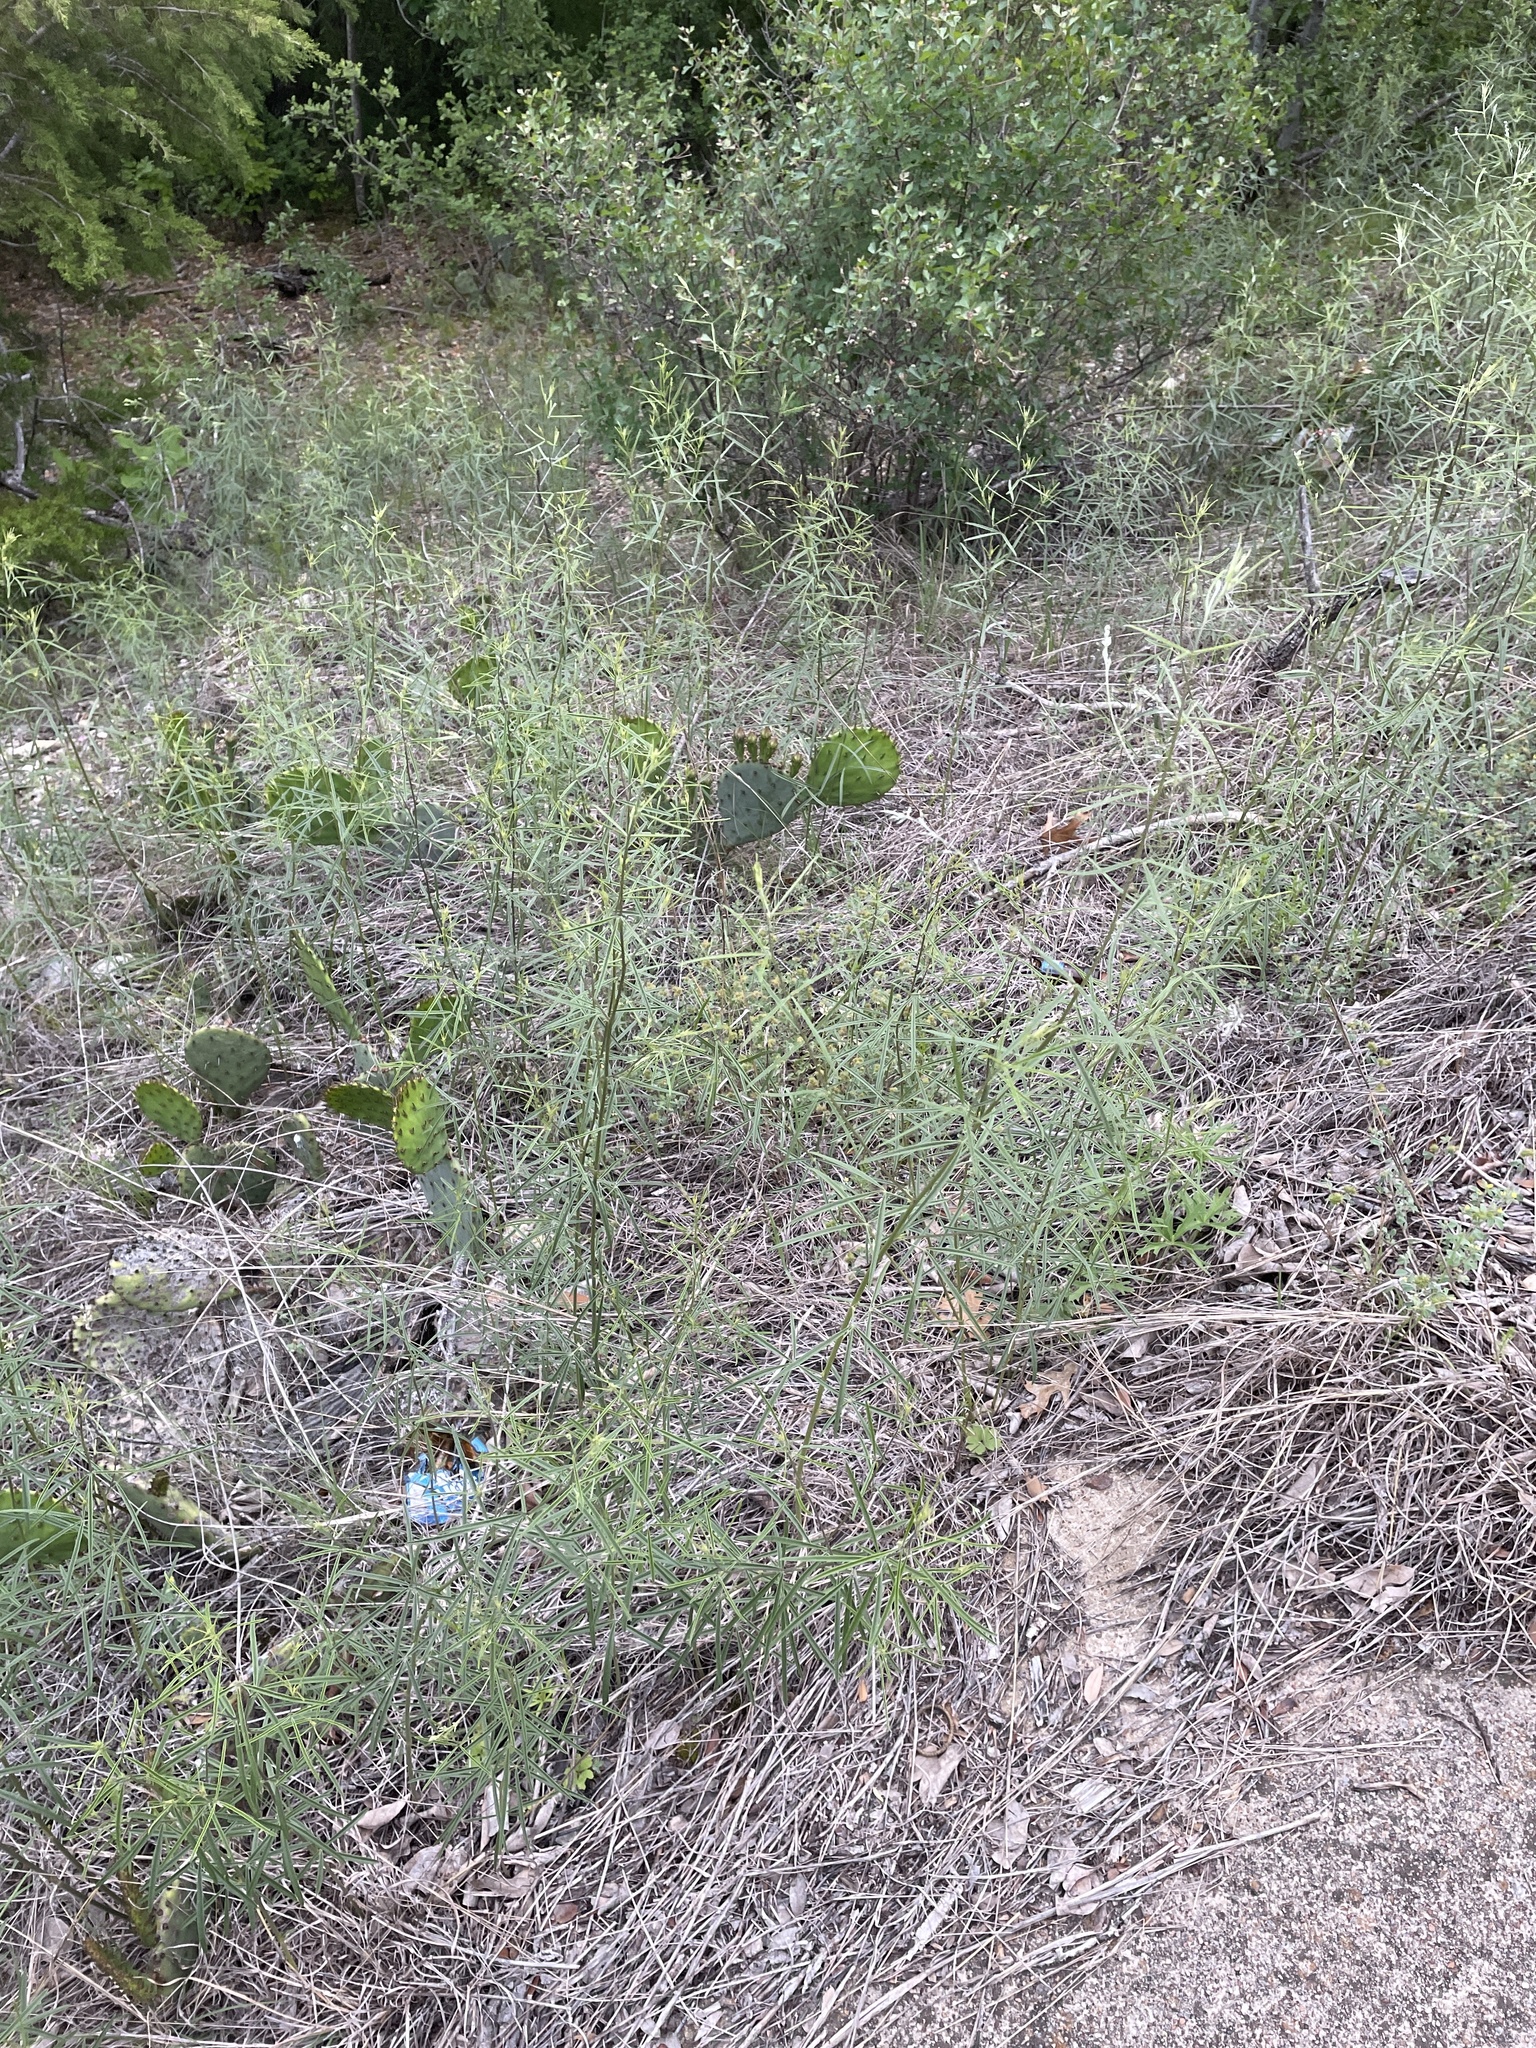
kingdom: Plantae
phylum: Tracheophyta
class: Magnoliopsida
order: Fabales
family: Fabaceae
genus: Pediomelum
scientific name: Pediomelum linearifolium
